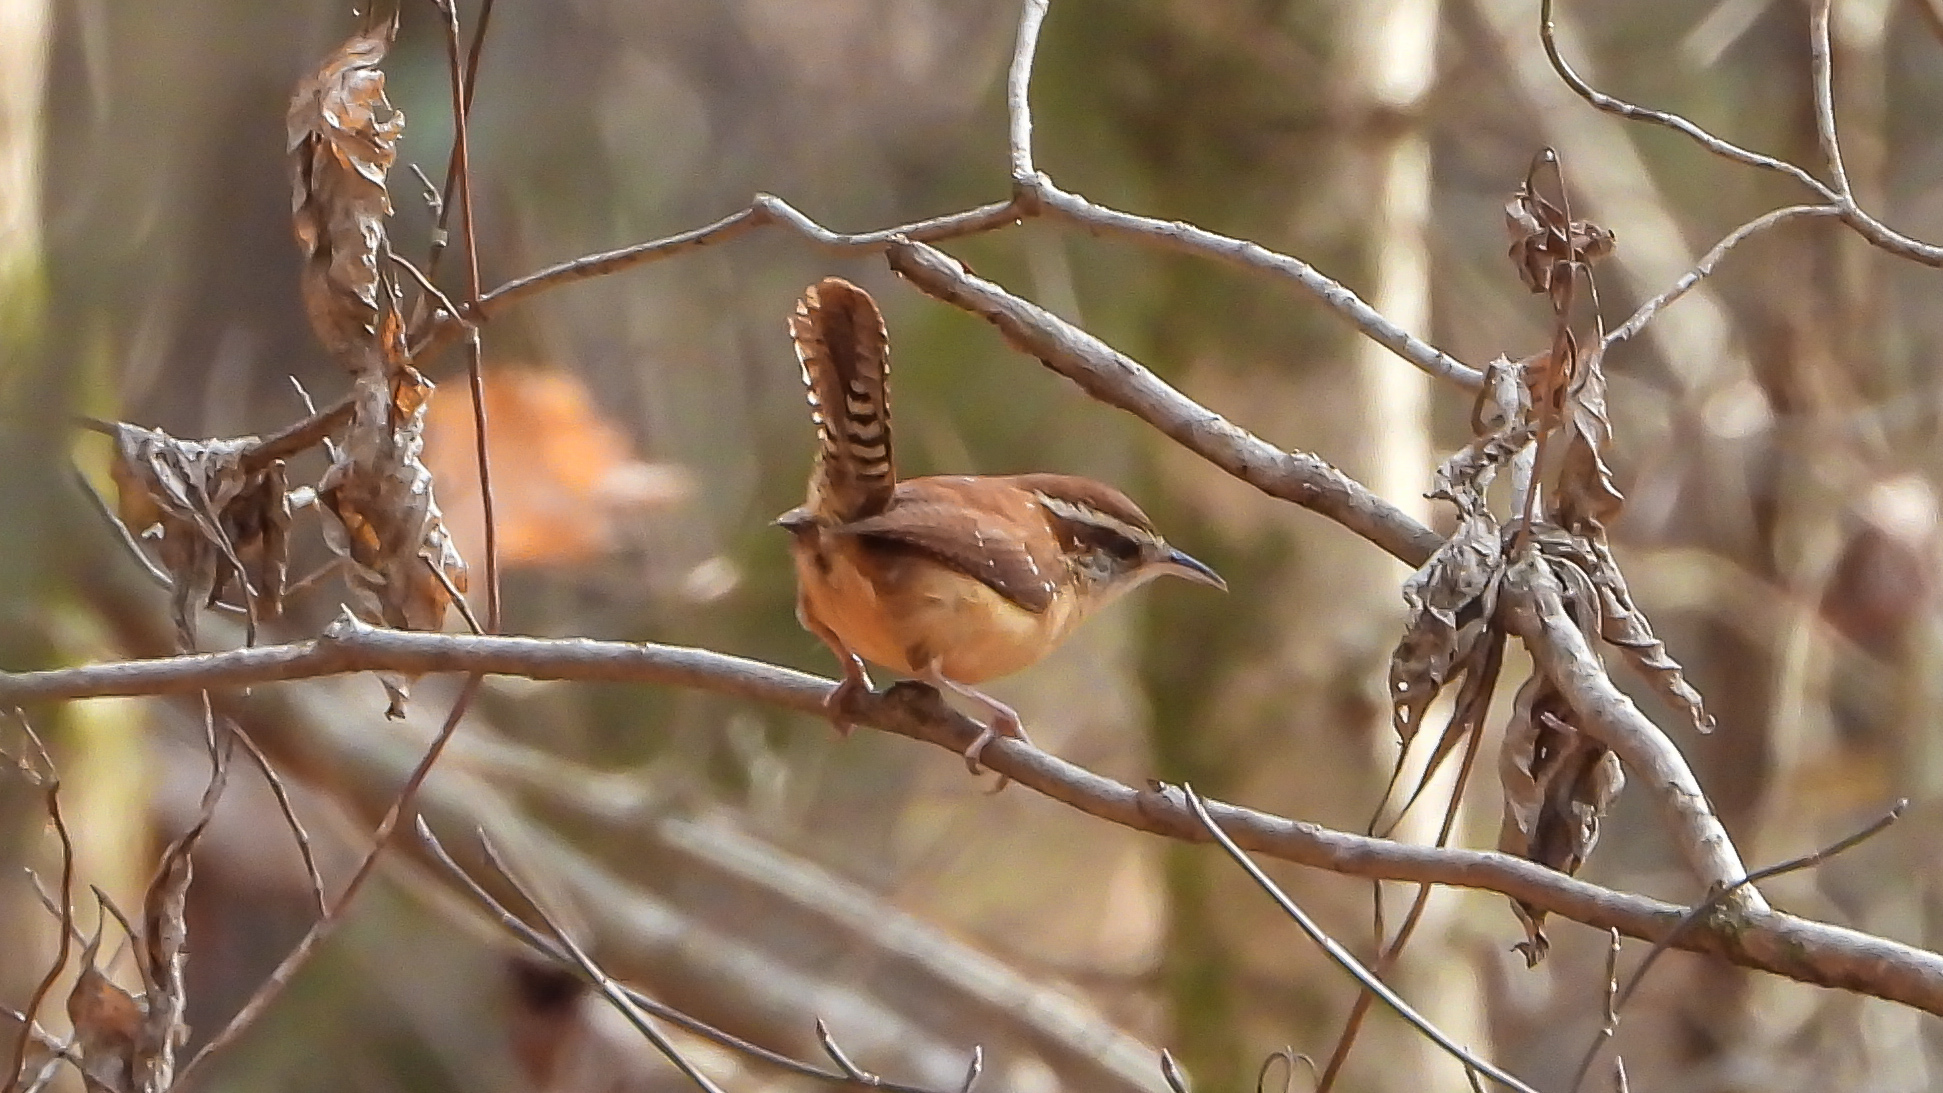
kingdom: Animalia
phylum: Chordata
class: Aves
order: Passeriformes
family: Troglodytidae
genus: Thryothorus
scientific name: Thryothorus ludovicianus
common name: Carolina wren
